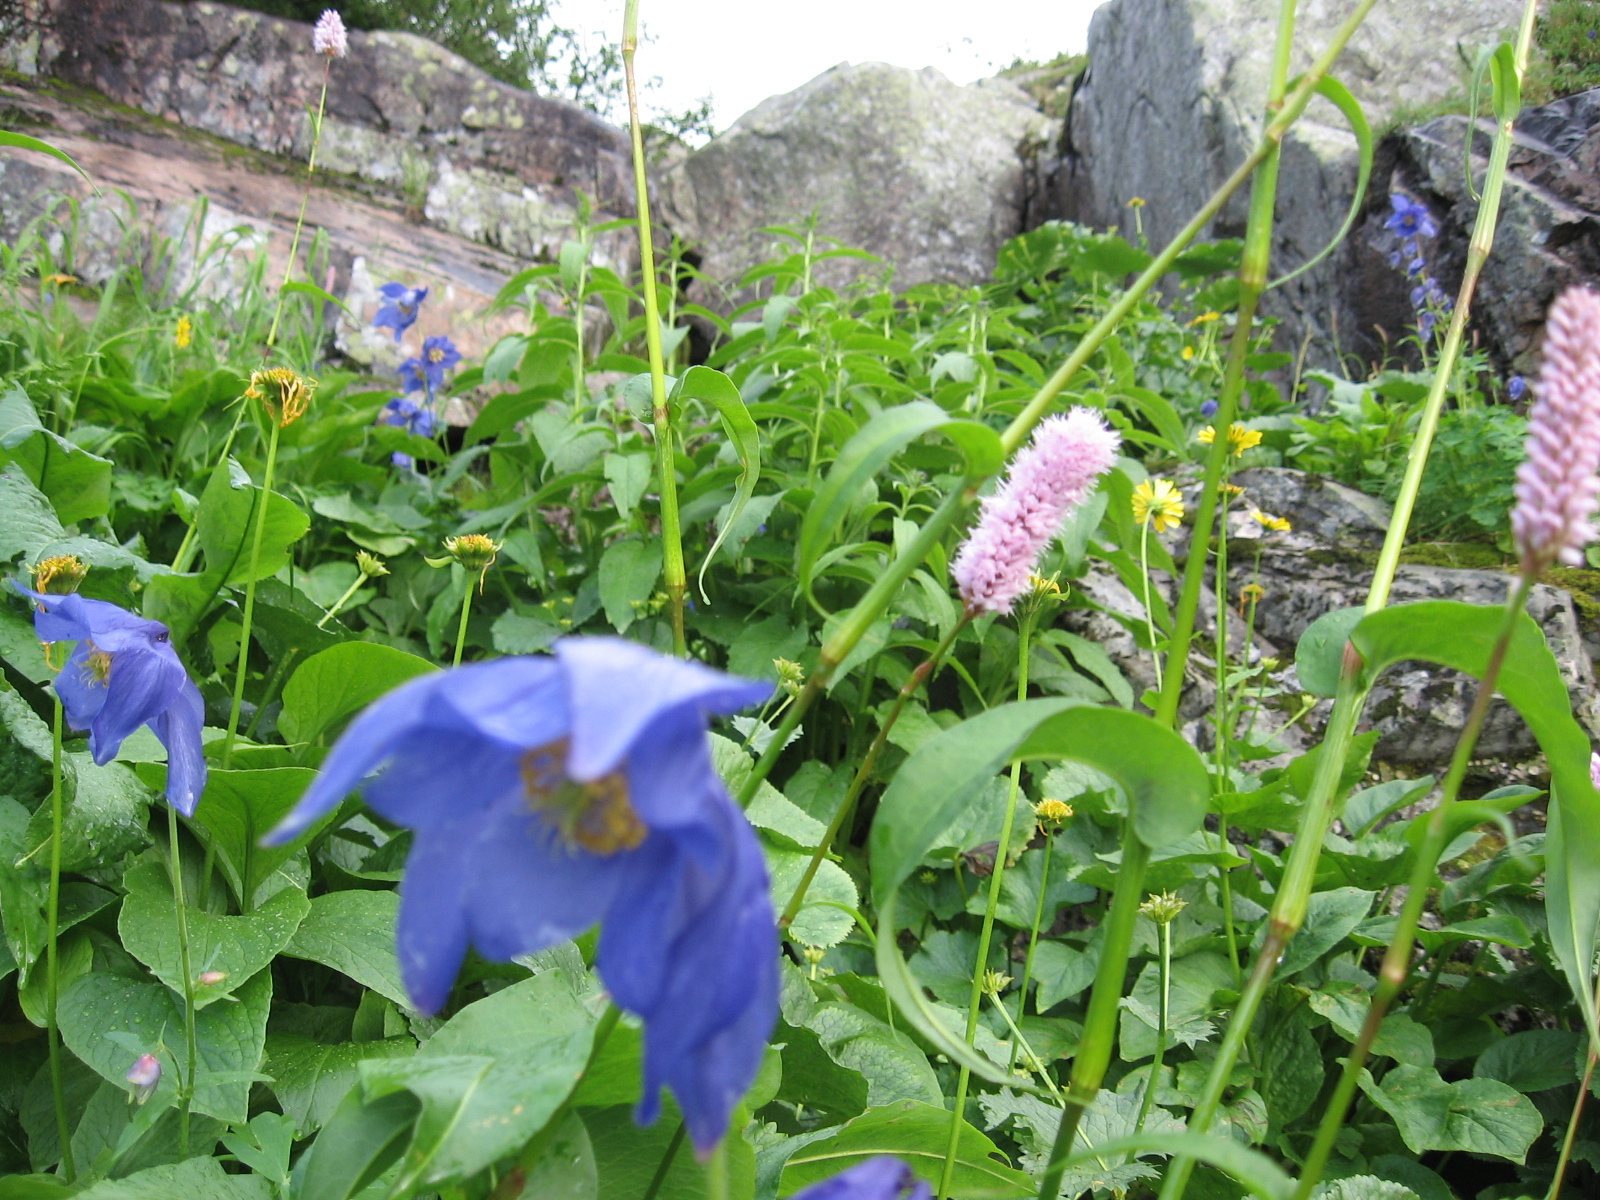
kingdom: Plantae
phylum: Tracheophyta
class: Magnoliopsida
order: Ranunculales
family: Ranunculaceae
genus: Aquilegia
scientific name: Aquilegia glandulosa
